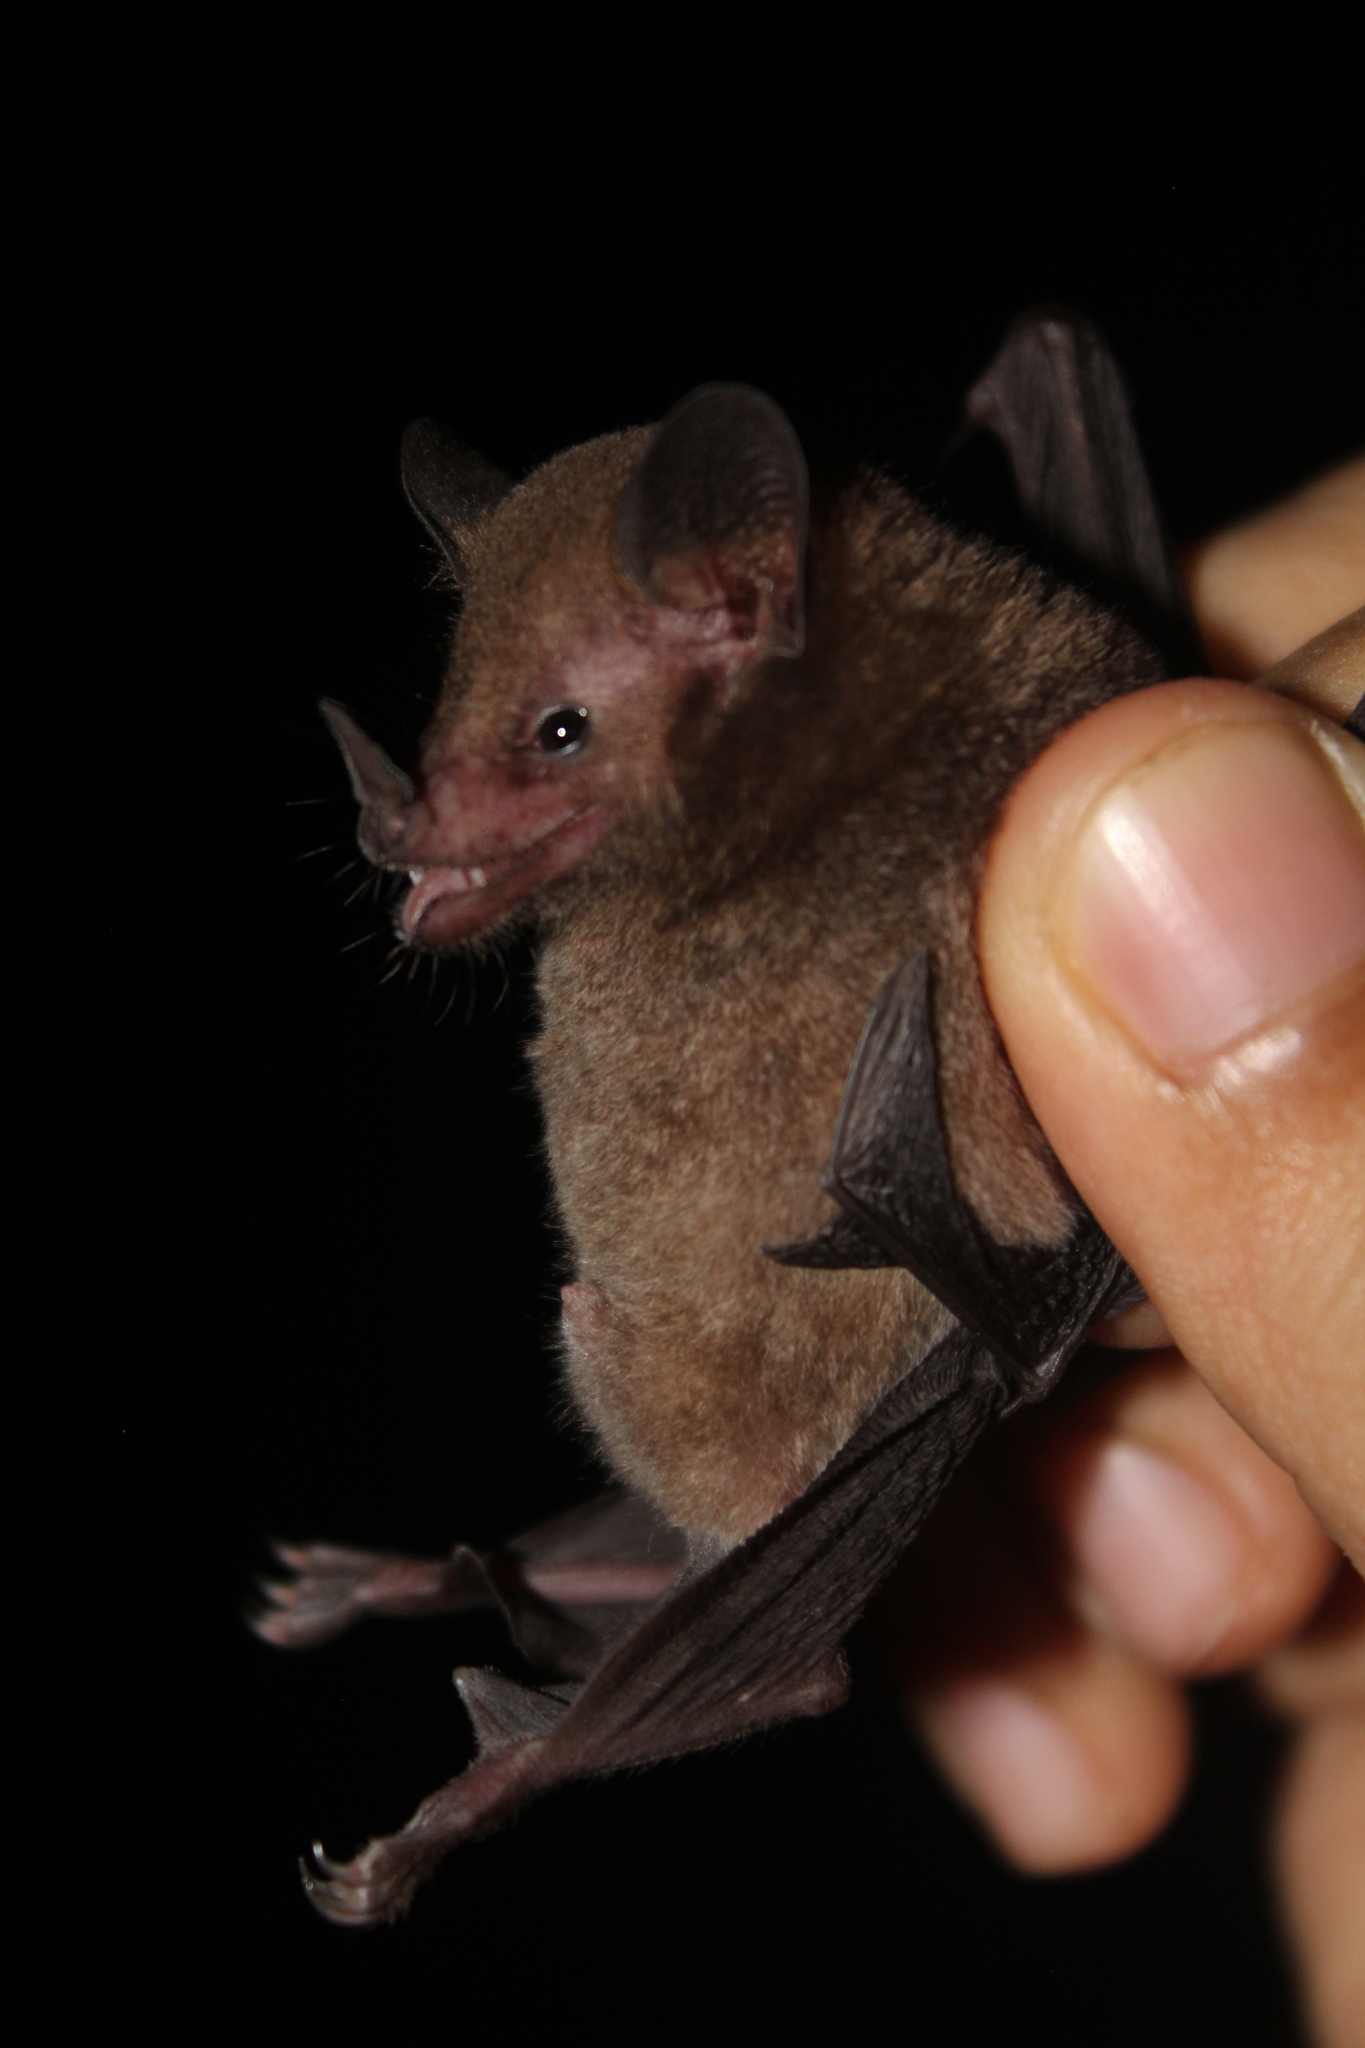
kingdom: Animalia
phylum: Chordata
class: Mammalia
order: Chiroptera
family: Phyllostomidae
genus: Lonchophylla
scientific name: Lonchophylla concava
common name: Goldman's nectar bat
